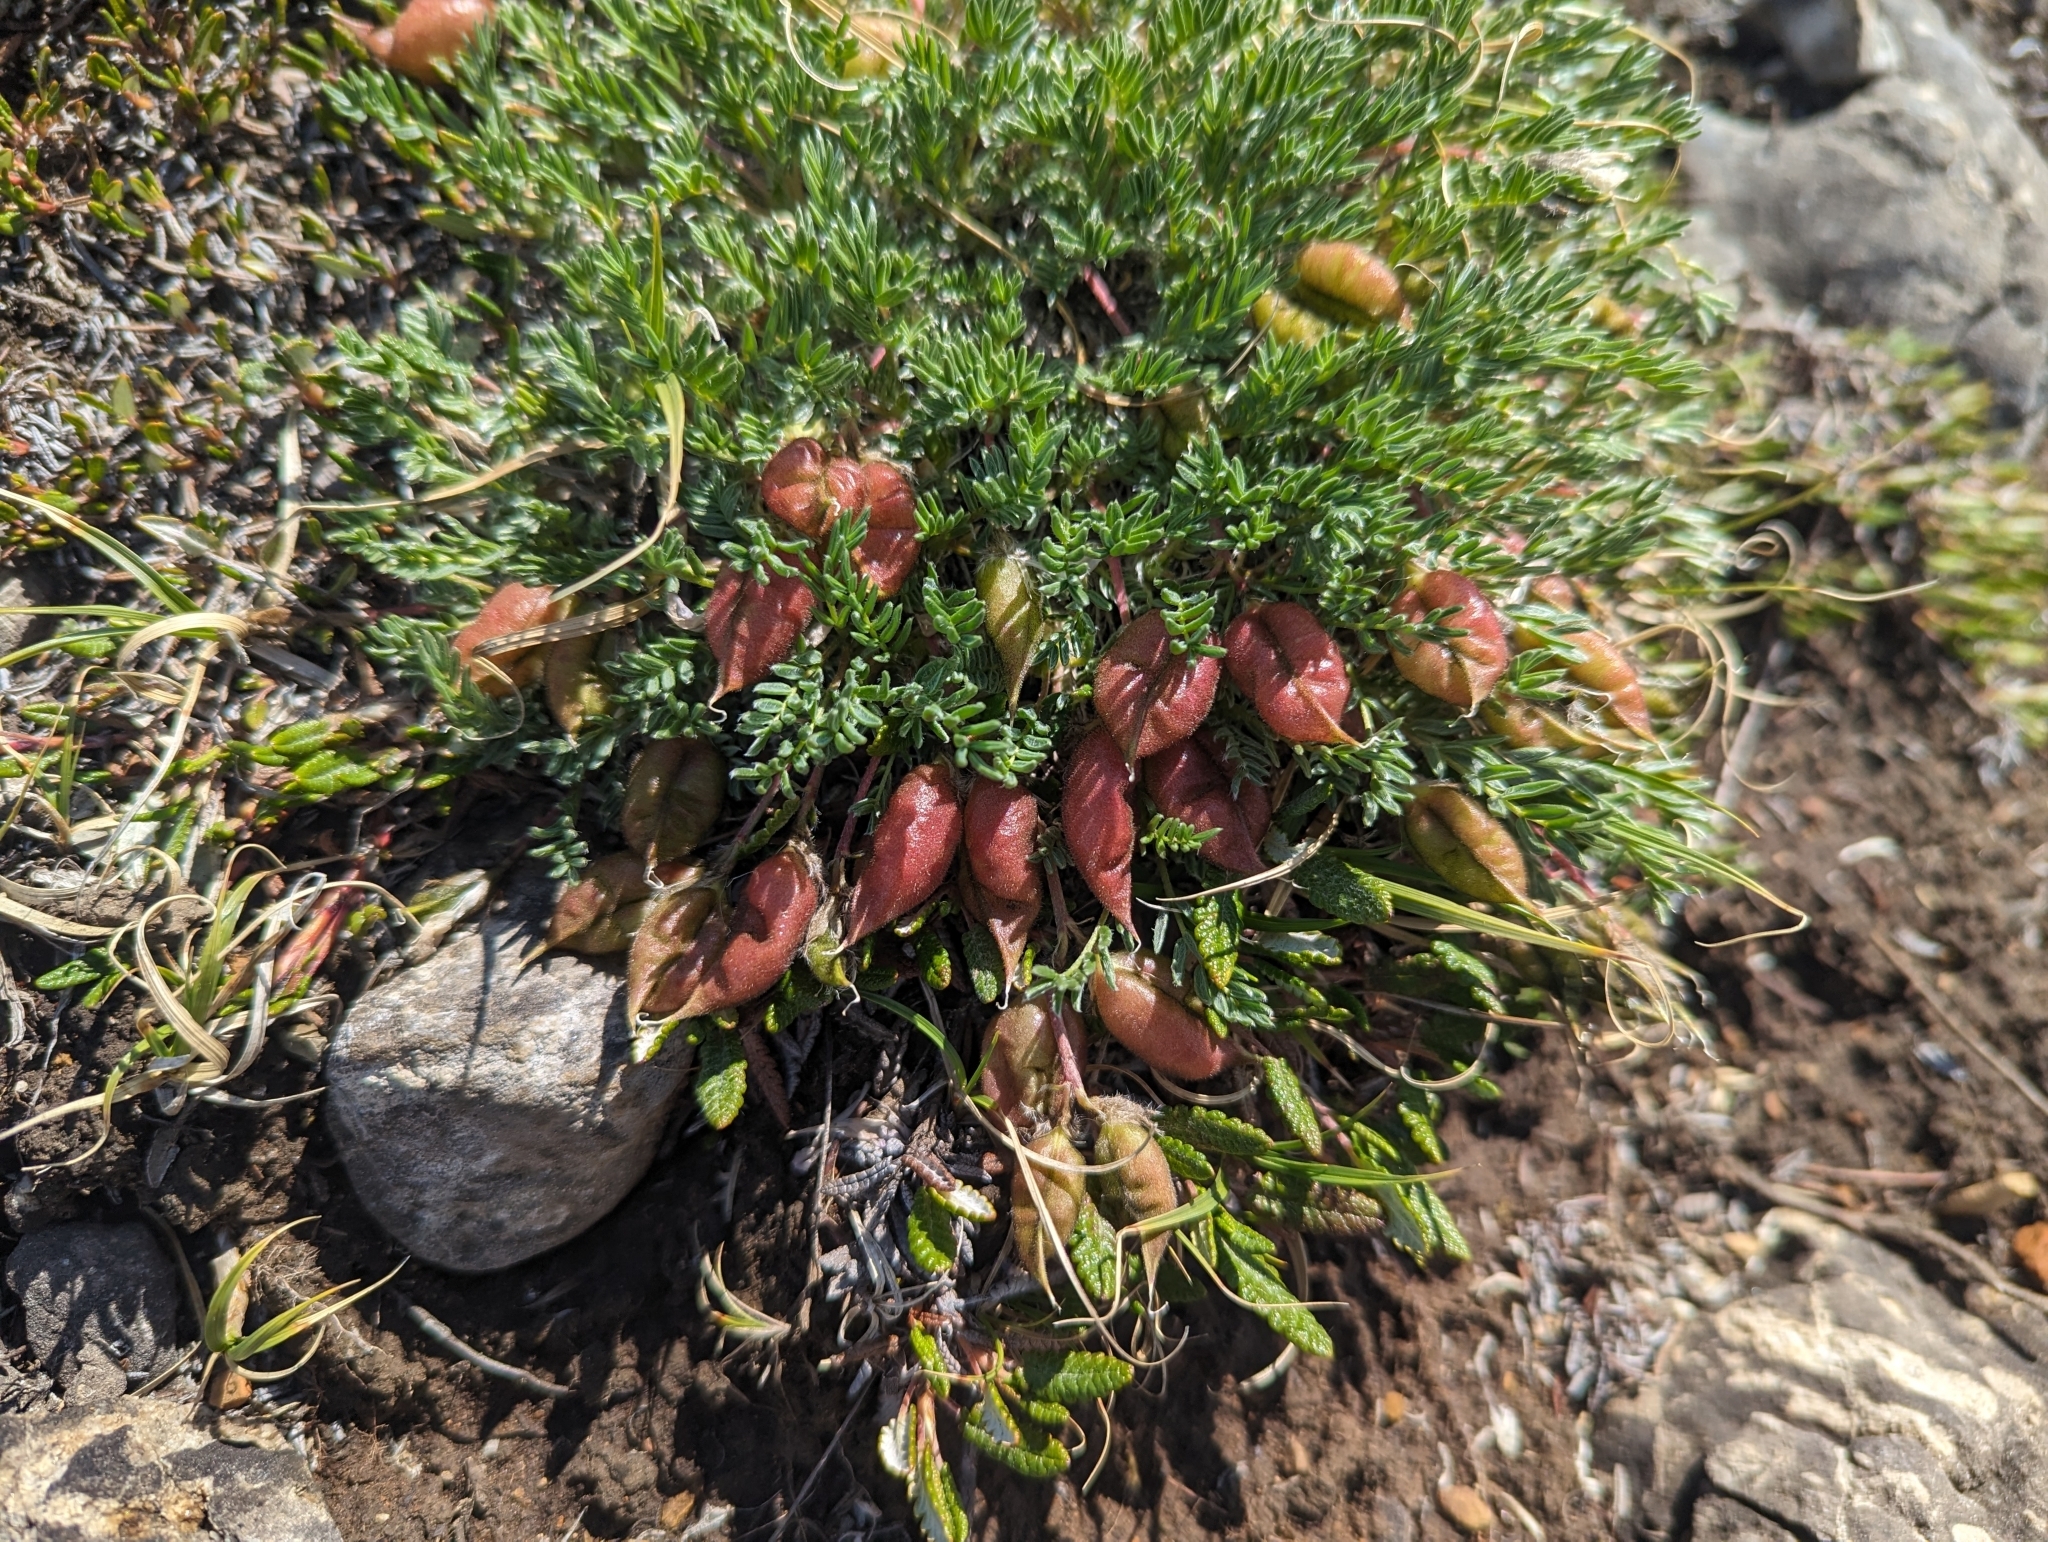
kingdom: Plantae
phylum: Tracheophyta
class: Magnoliopsida
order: Fabales
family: Fabaceae
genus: Oxytropis
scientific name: Oxytropis podocarpa
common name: Gray's oxytrope
